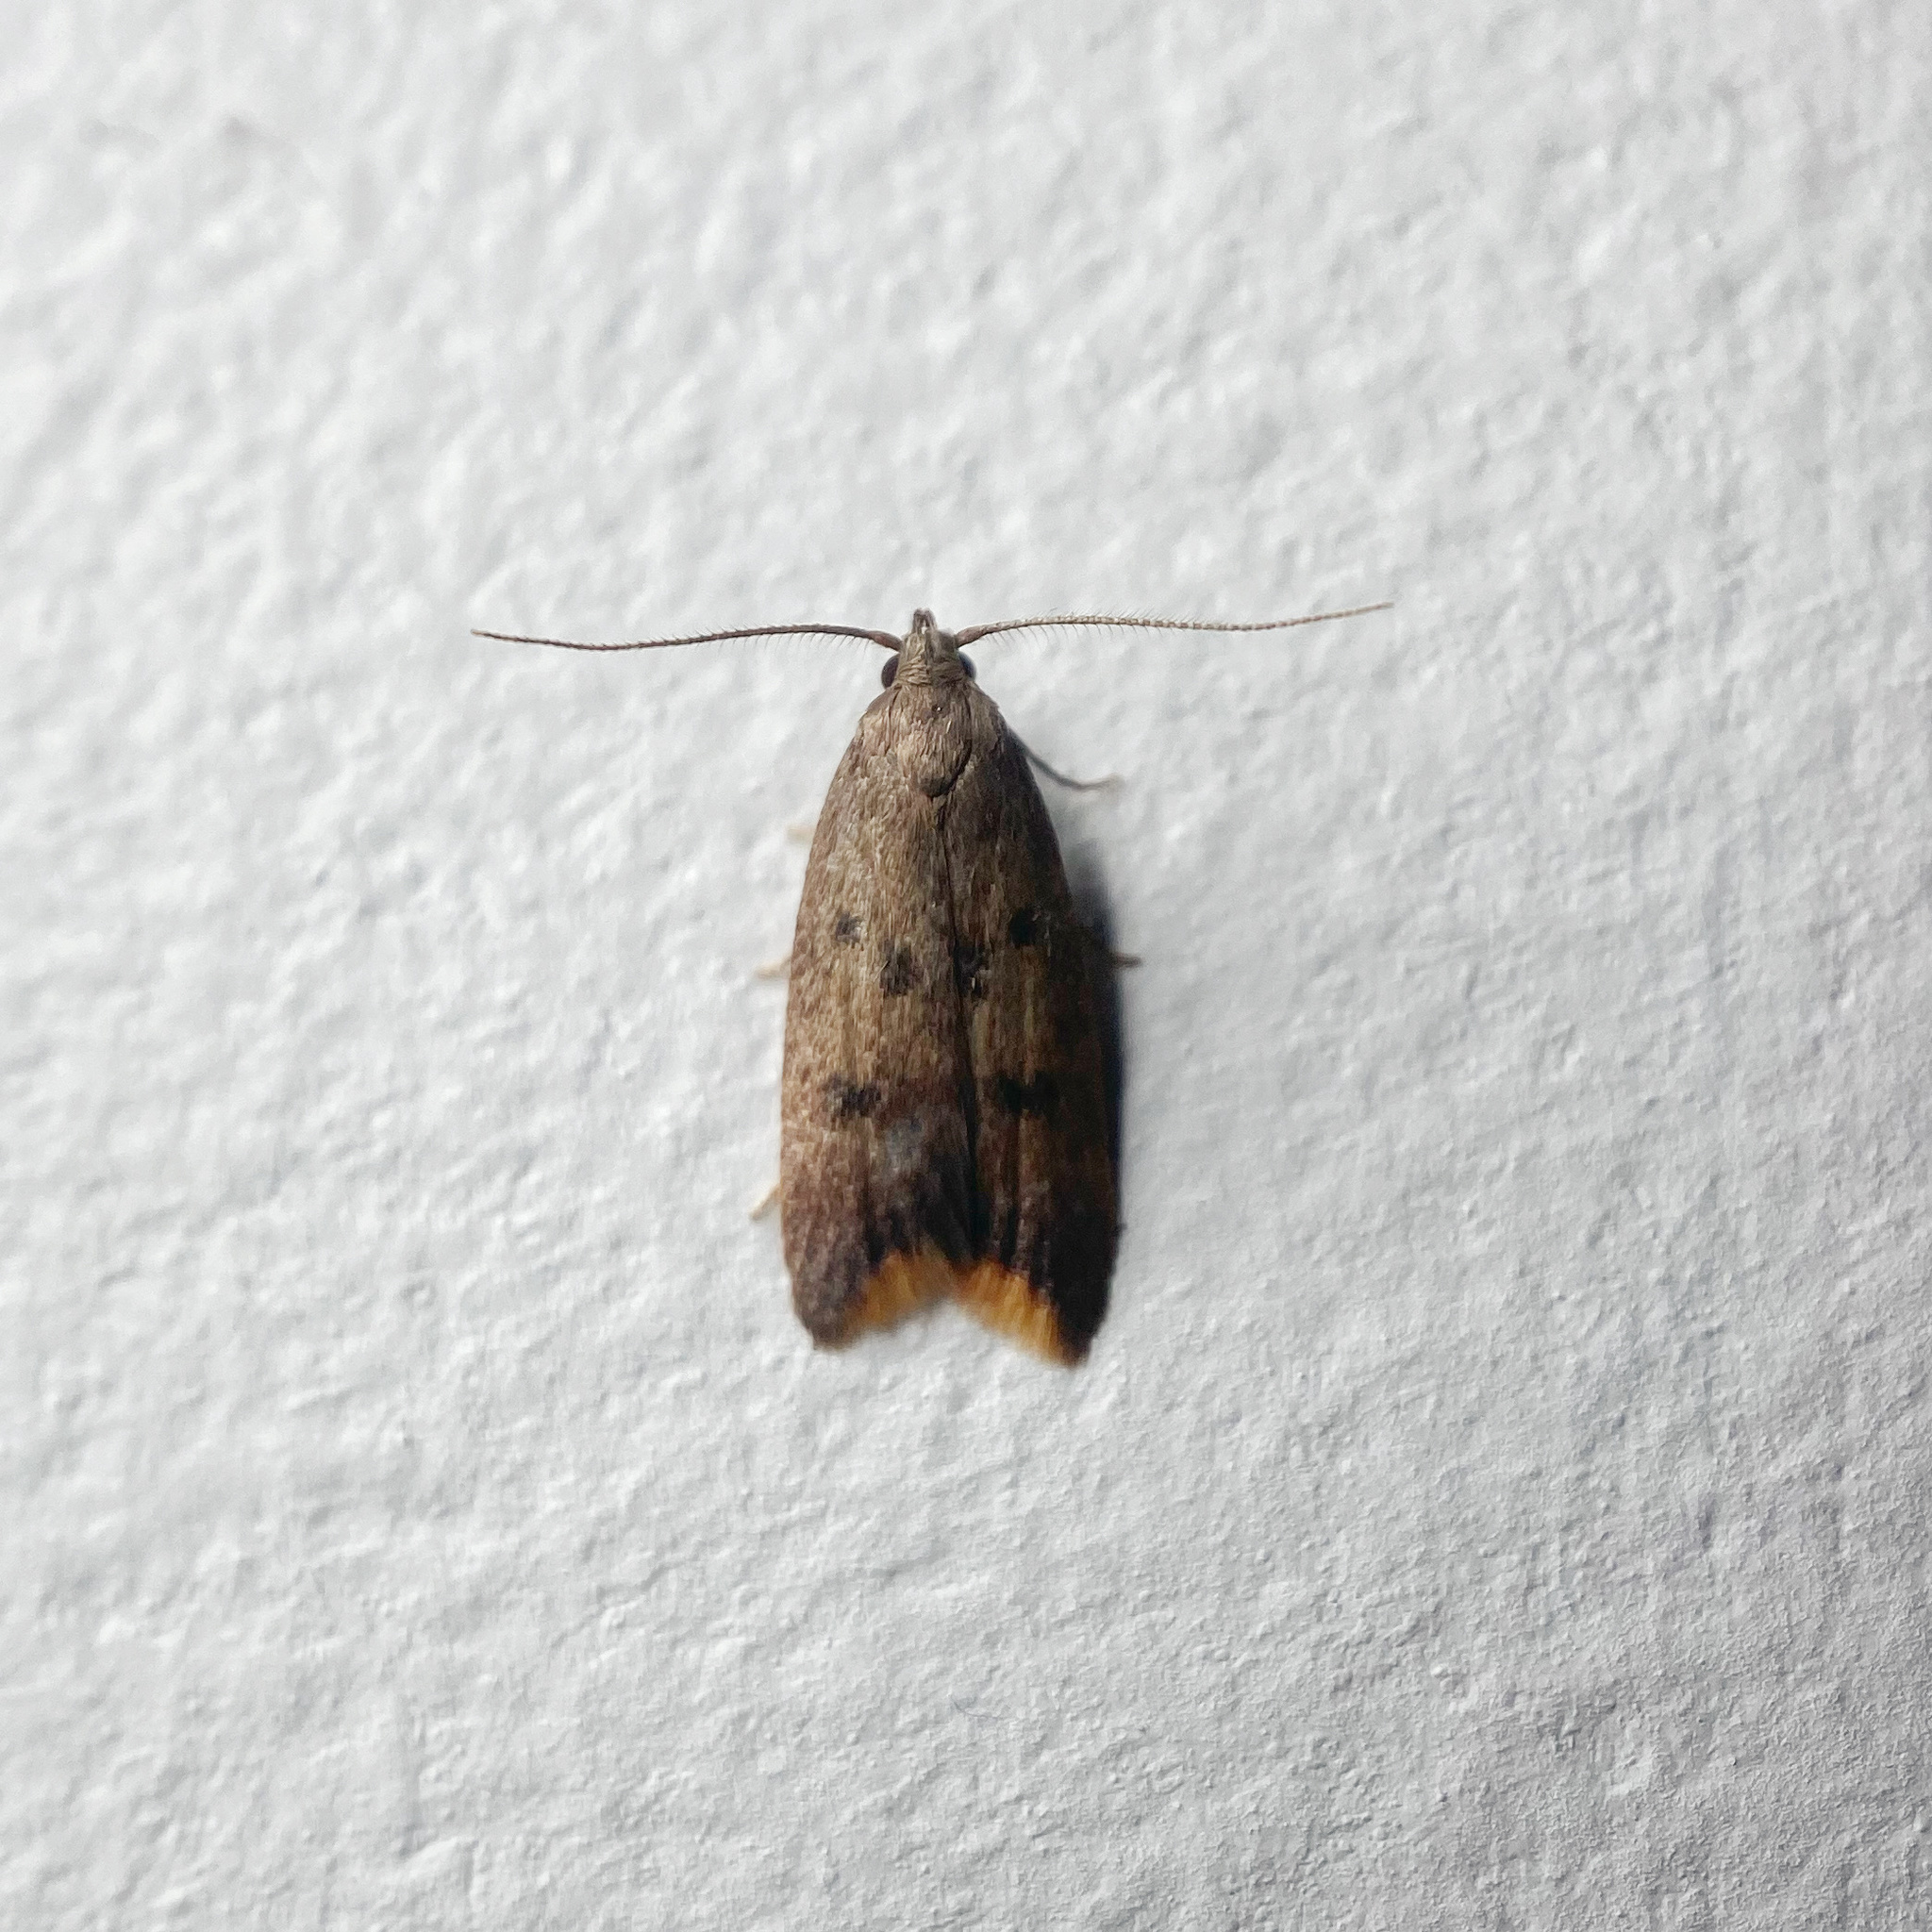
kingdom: Animalia
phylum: Arthropoda
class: Insecta
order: Lepidoptera
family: Oecophoridae
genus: Tachystola
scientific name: Tachystola acroxantha
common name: Ruddy streak
